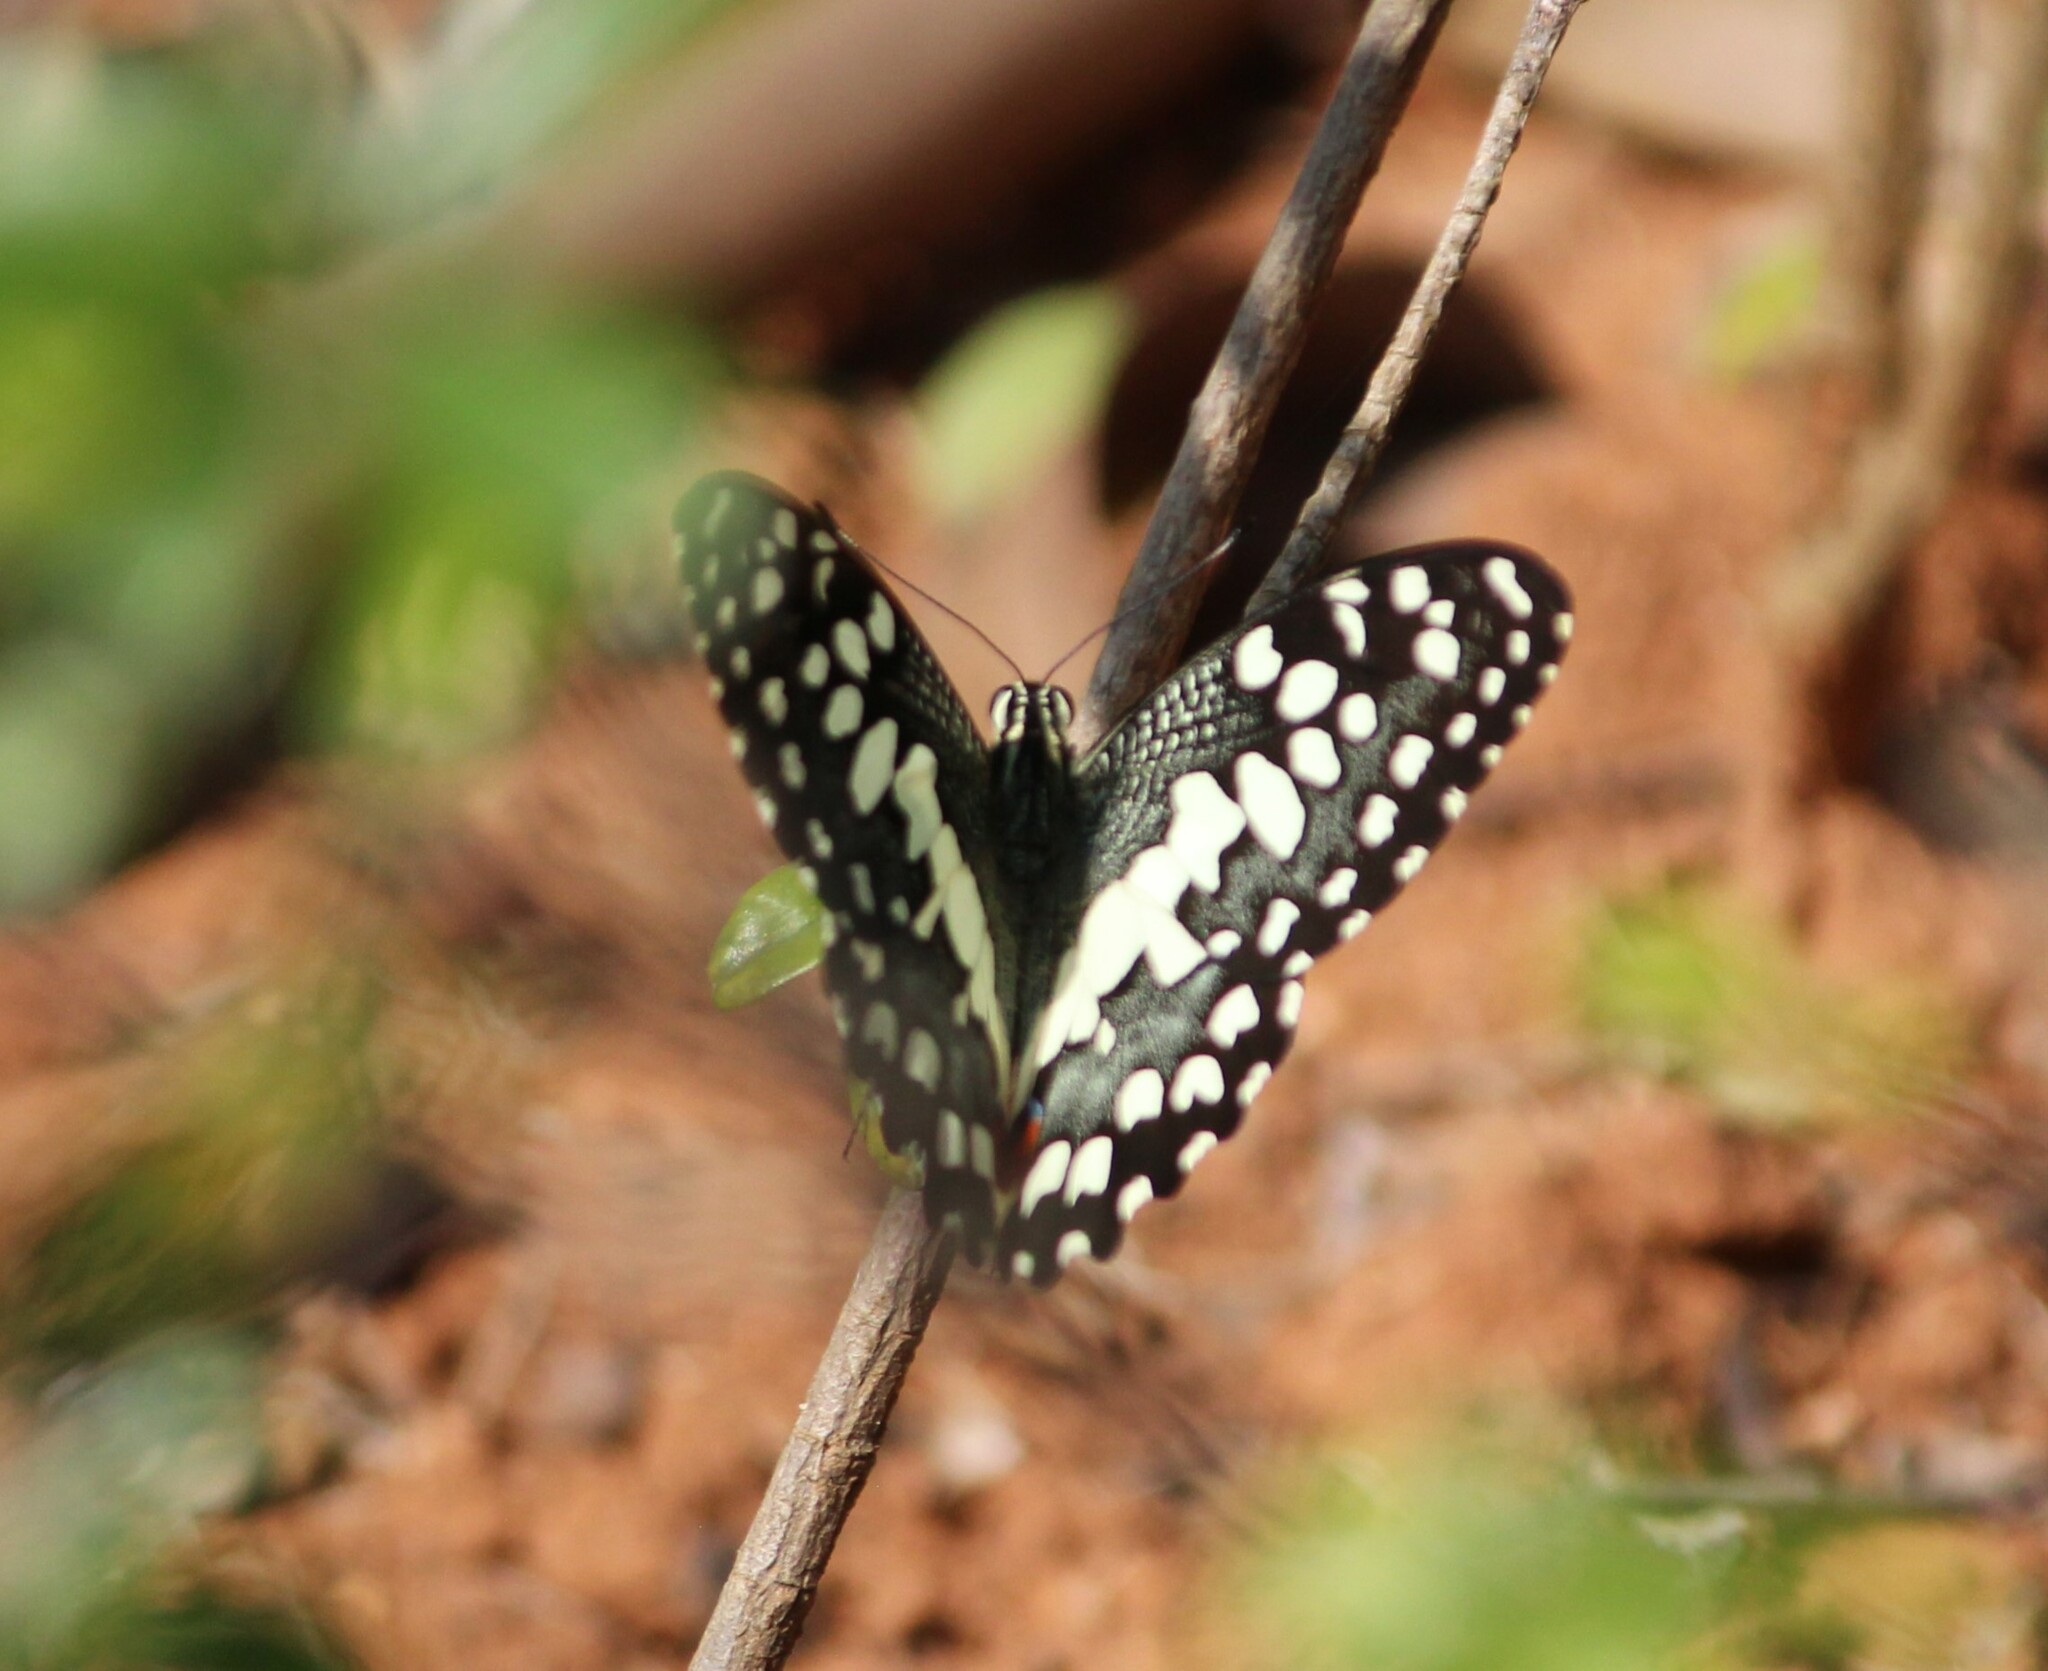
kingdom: Animalia
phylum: Arthropoda
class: Insecta
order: Lepidoptera
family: Papilionidae
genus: Papilio
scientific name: Papilio demoleus
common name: Lime butterfly
